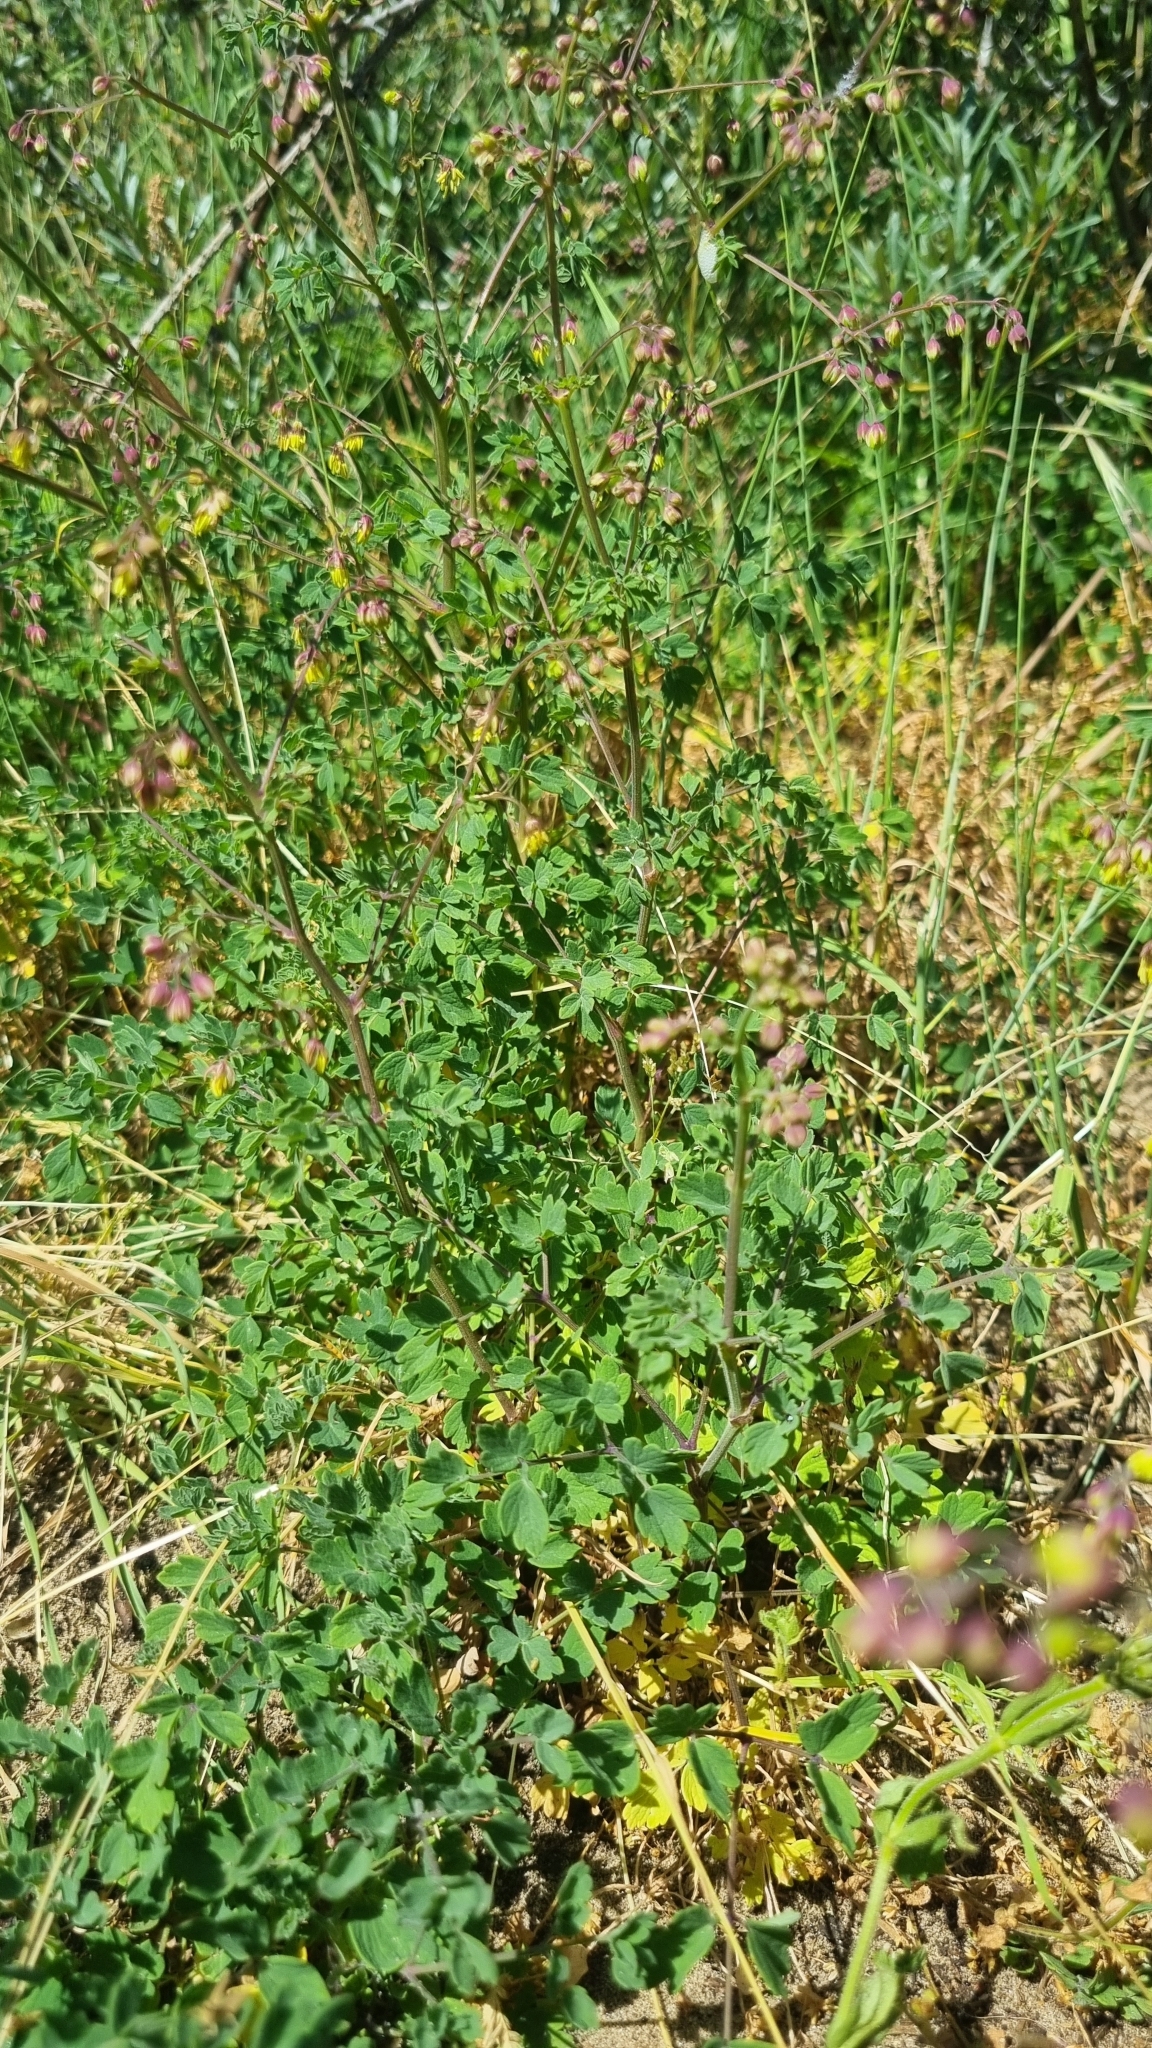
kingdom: Plantae
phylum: Tracheophyta
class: Magnoliopsida
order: Ranunculales
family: Ranunculaceae
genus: Thalictrum
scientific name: Thalictrum minus
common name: Lesser meadow-rue
